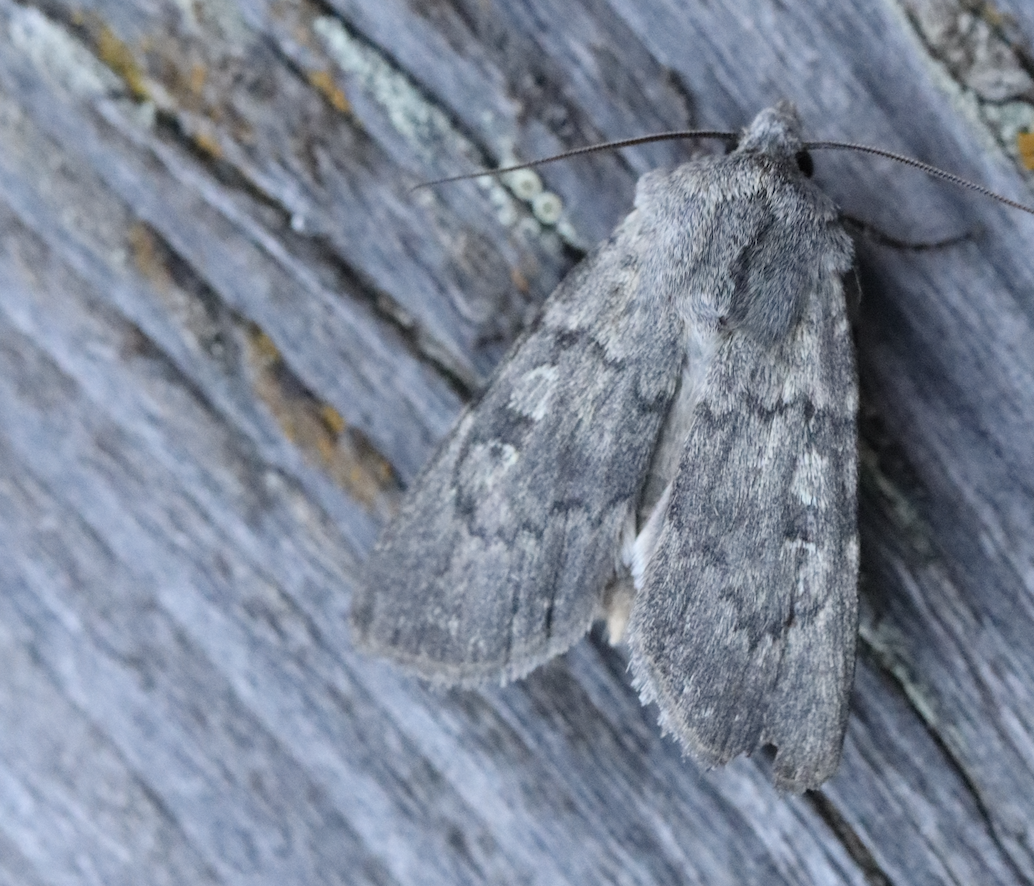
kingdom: Animalia
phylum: Arthropoda
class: Insecta
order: Lepidoptera
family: Noctuidae
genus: Euxoa
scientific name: Euxoa decora
